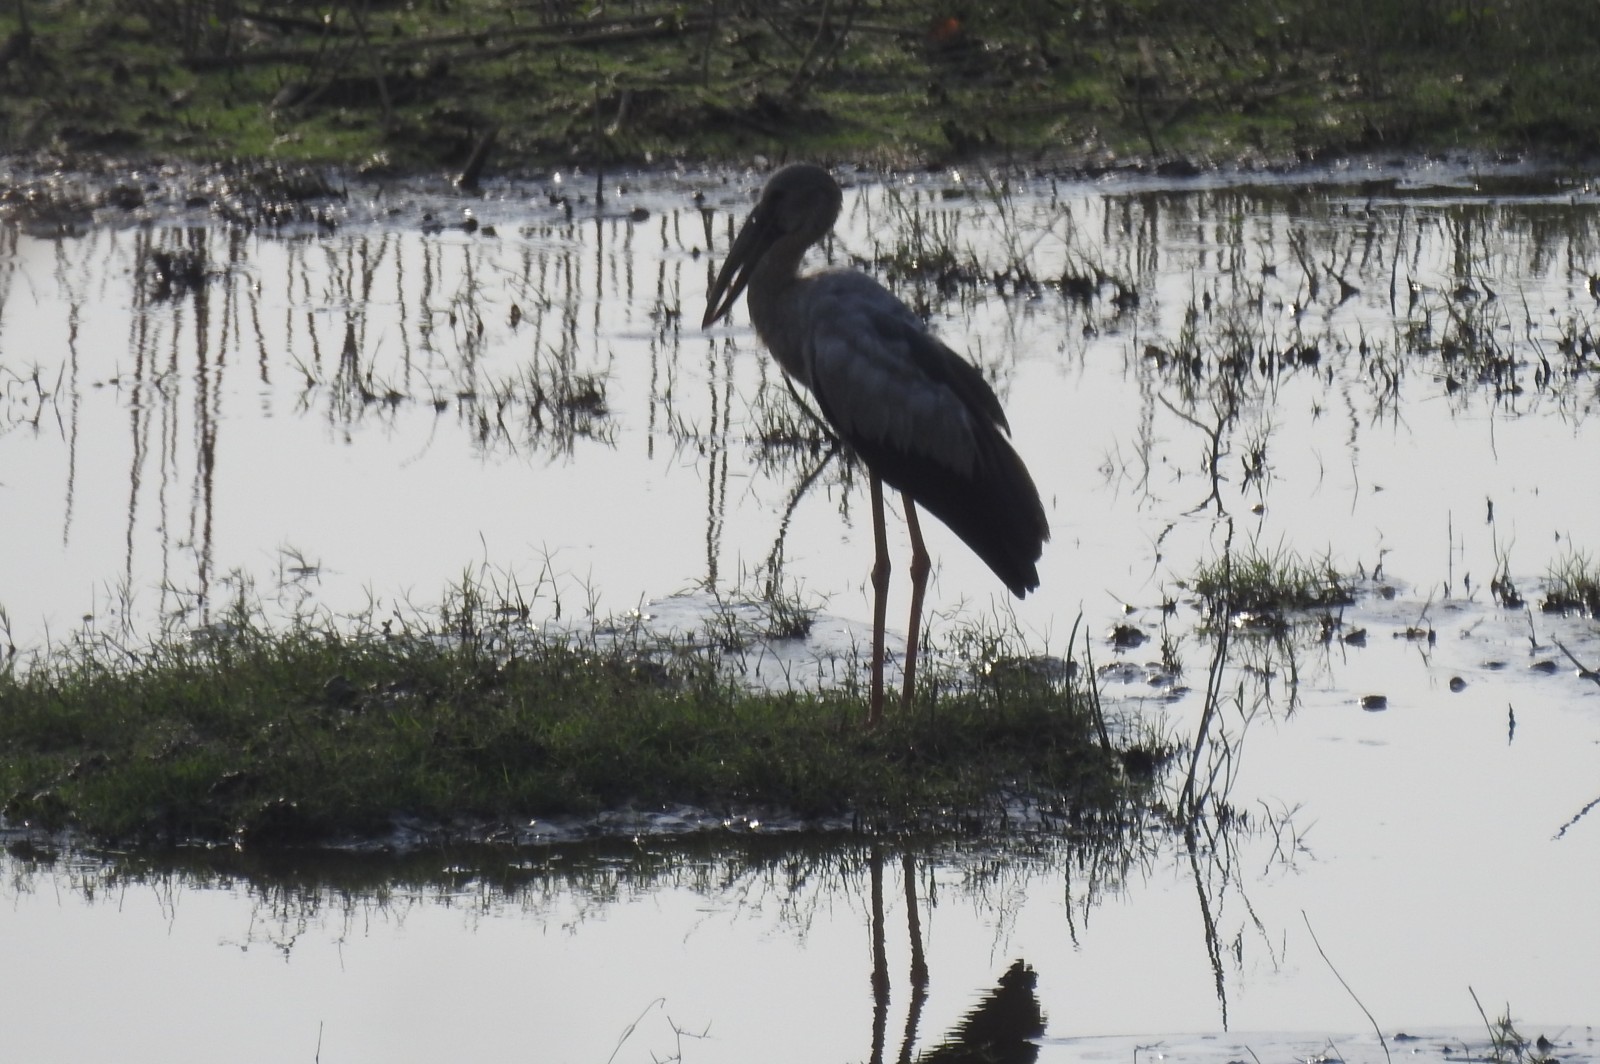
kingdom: Animalia
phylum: Chordata
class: Aves
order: Ciconiiformes
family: Ciconiidae
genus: Anastomus
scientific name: Anastomus oscitans
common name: Asian openbill
